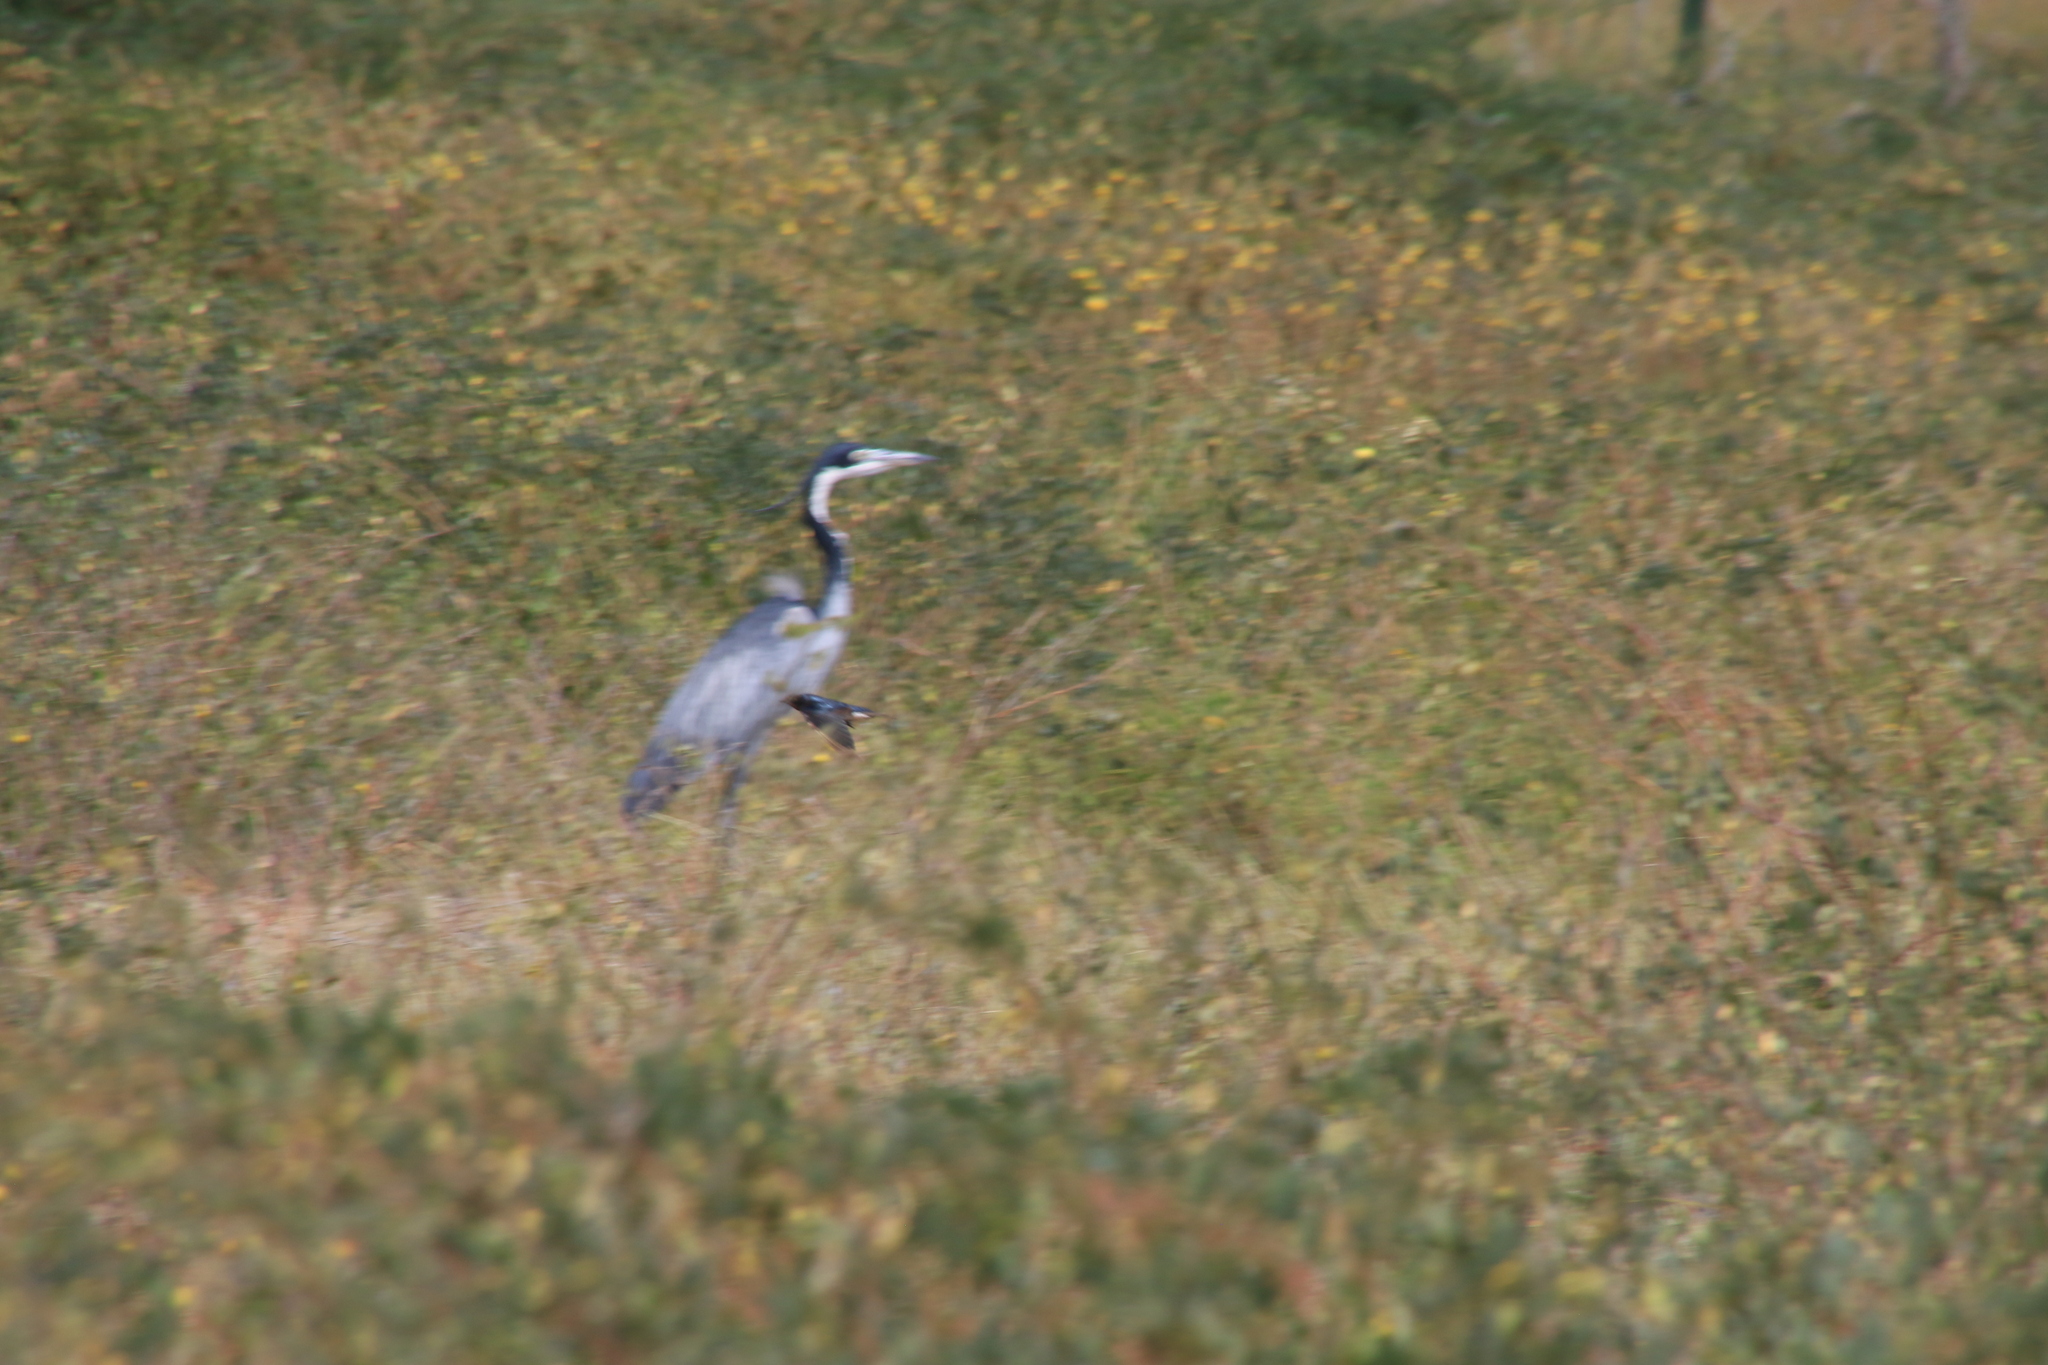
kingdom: Animalia
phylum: Chordata
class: Aves
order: Pelecaniformes
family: Ardeidae
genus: Ardea
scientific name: Ardea melanocephala
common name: Black-headed heron
